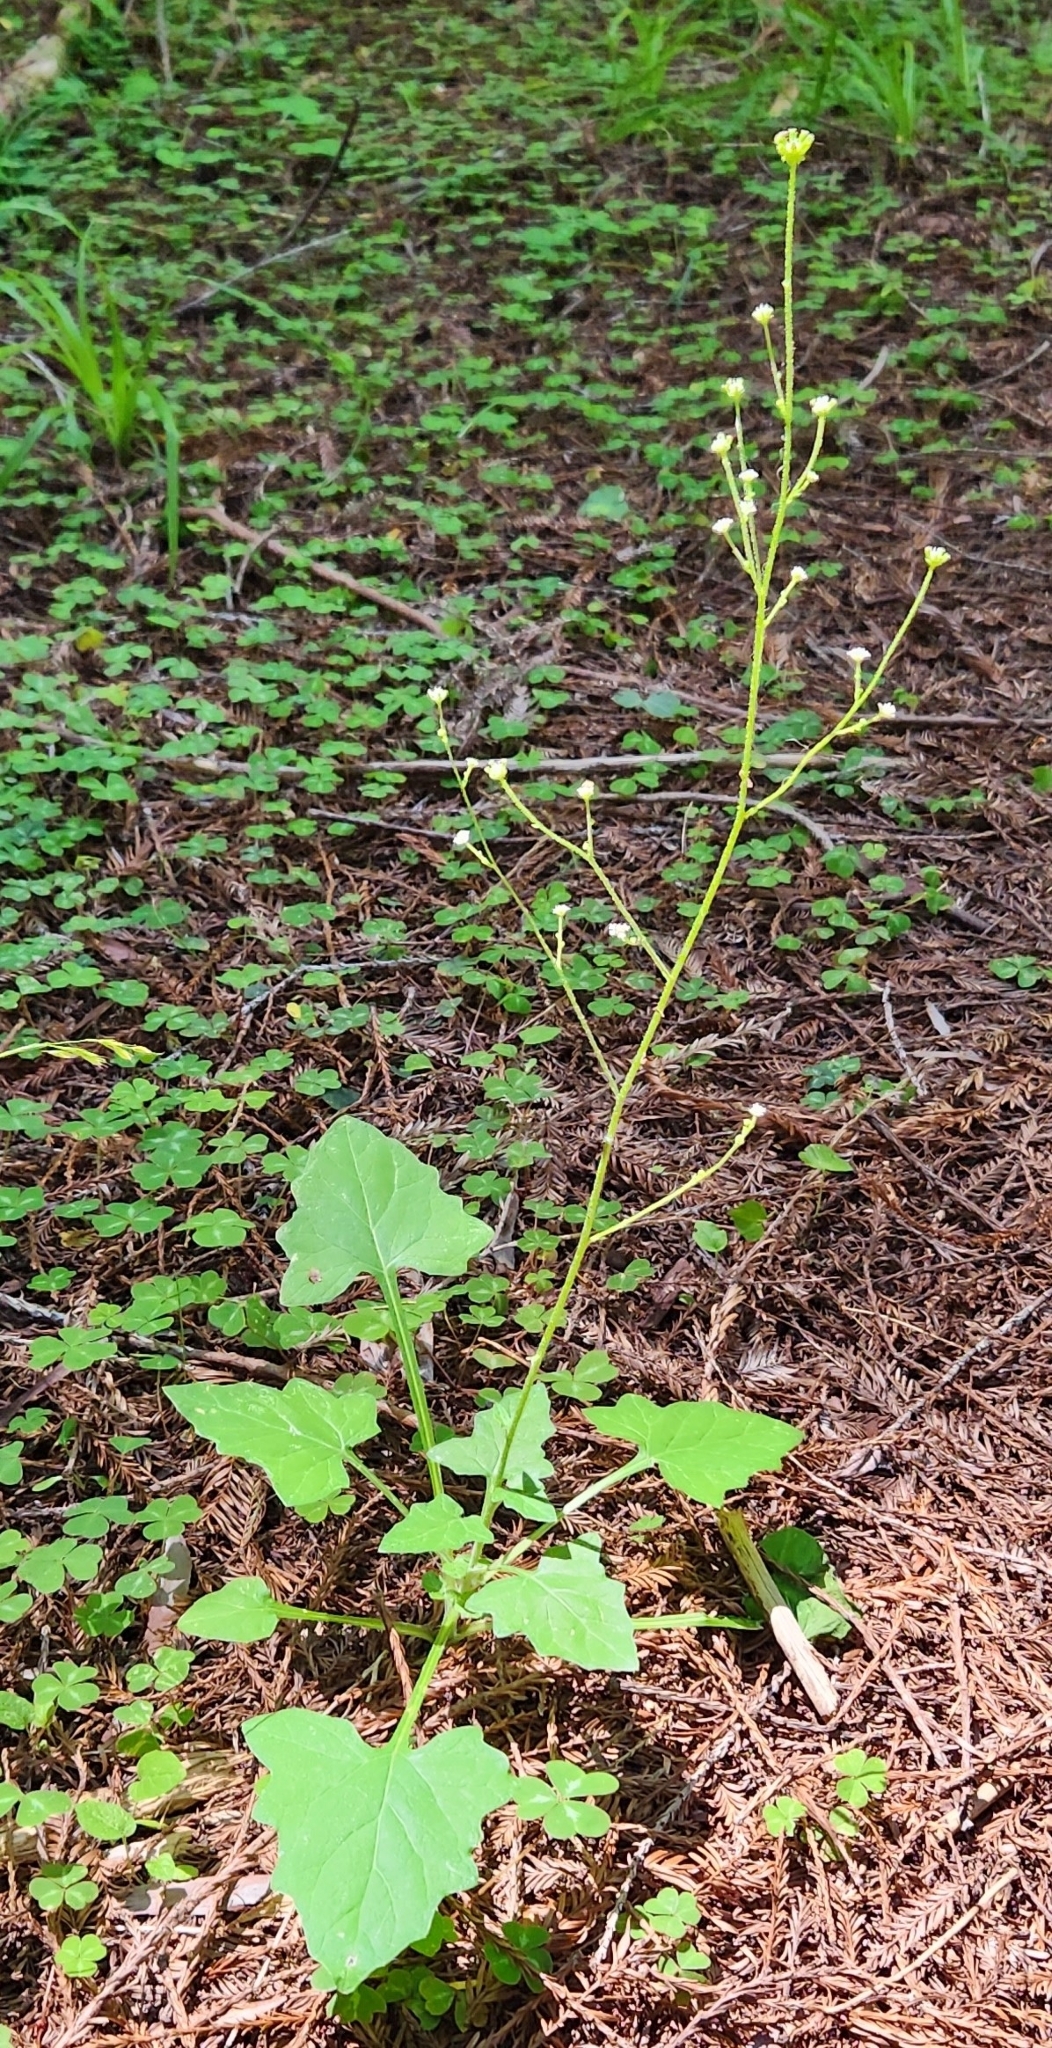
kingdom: Plantae
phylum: Tracheophyta
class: Magnoliopsida
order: Asterales
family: Asteraceae
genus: Adenocaulon
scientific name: Adenocaulon bicolor
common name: Trailplant
